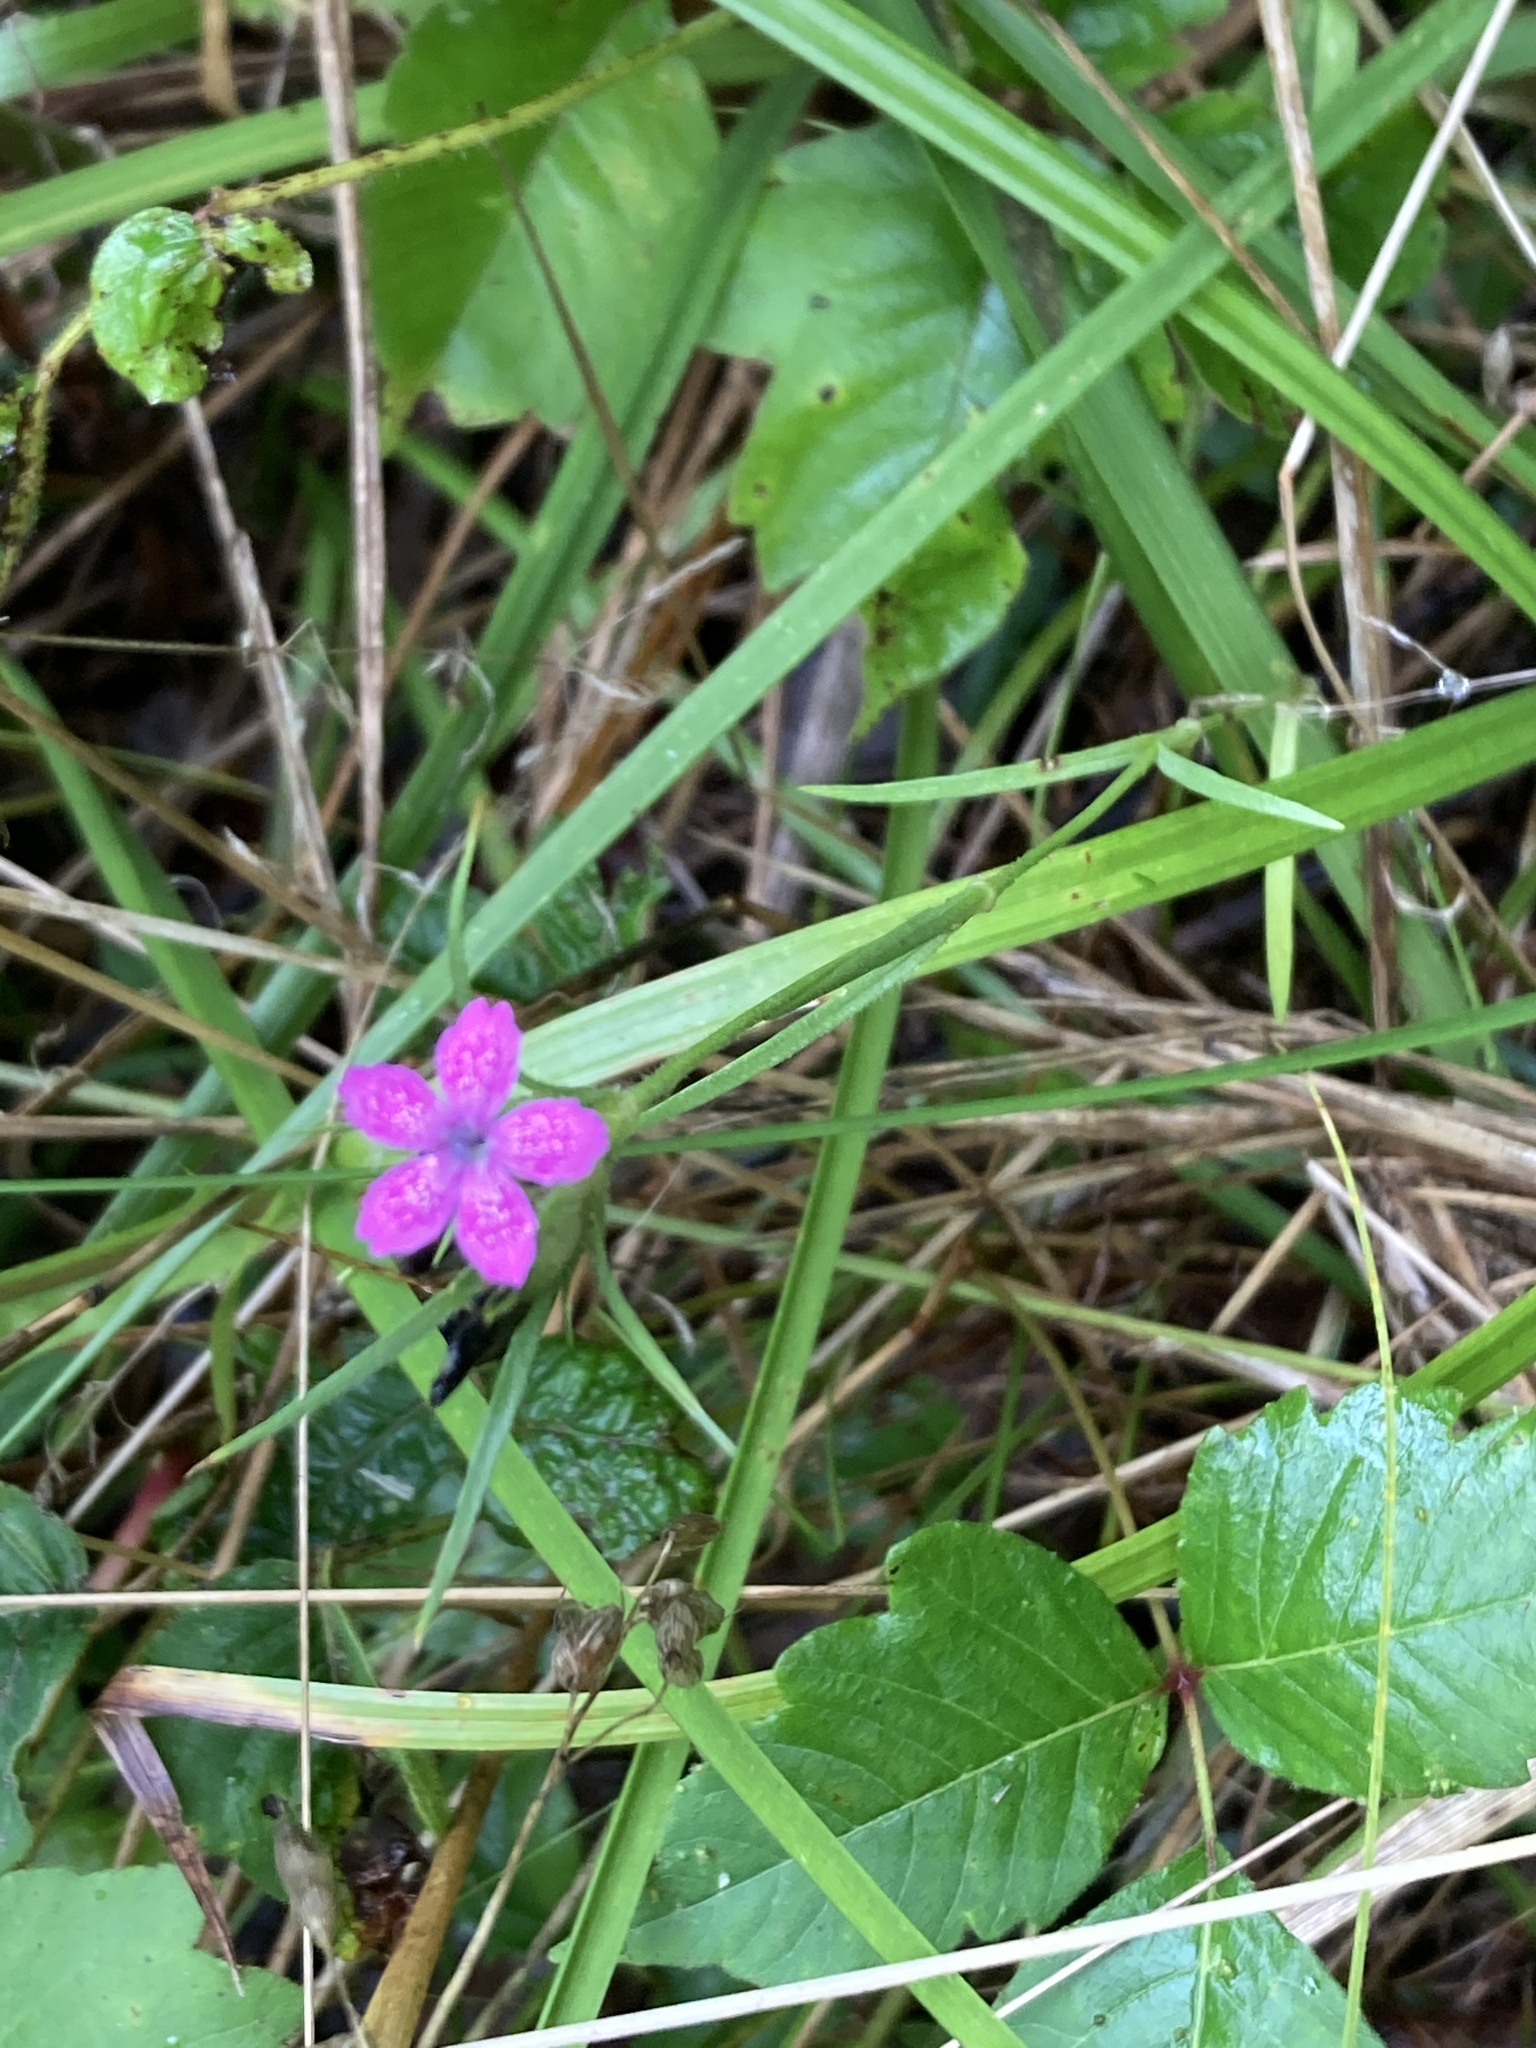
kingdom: Plantae
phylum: Tracheophyta
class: Magnoliopsida
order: Caryophyllales
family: Caryophyllaceae
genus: Dianthus
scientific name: Dianthus armeria
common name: Deptford pink
